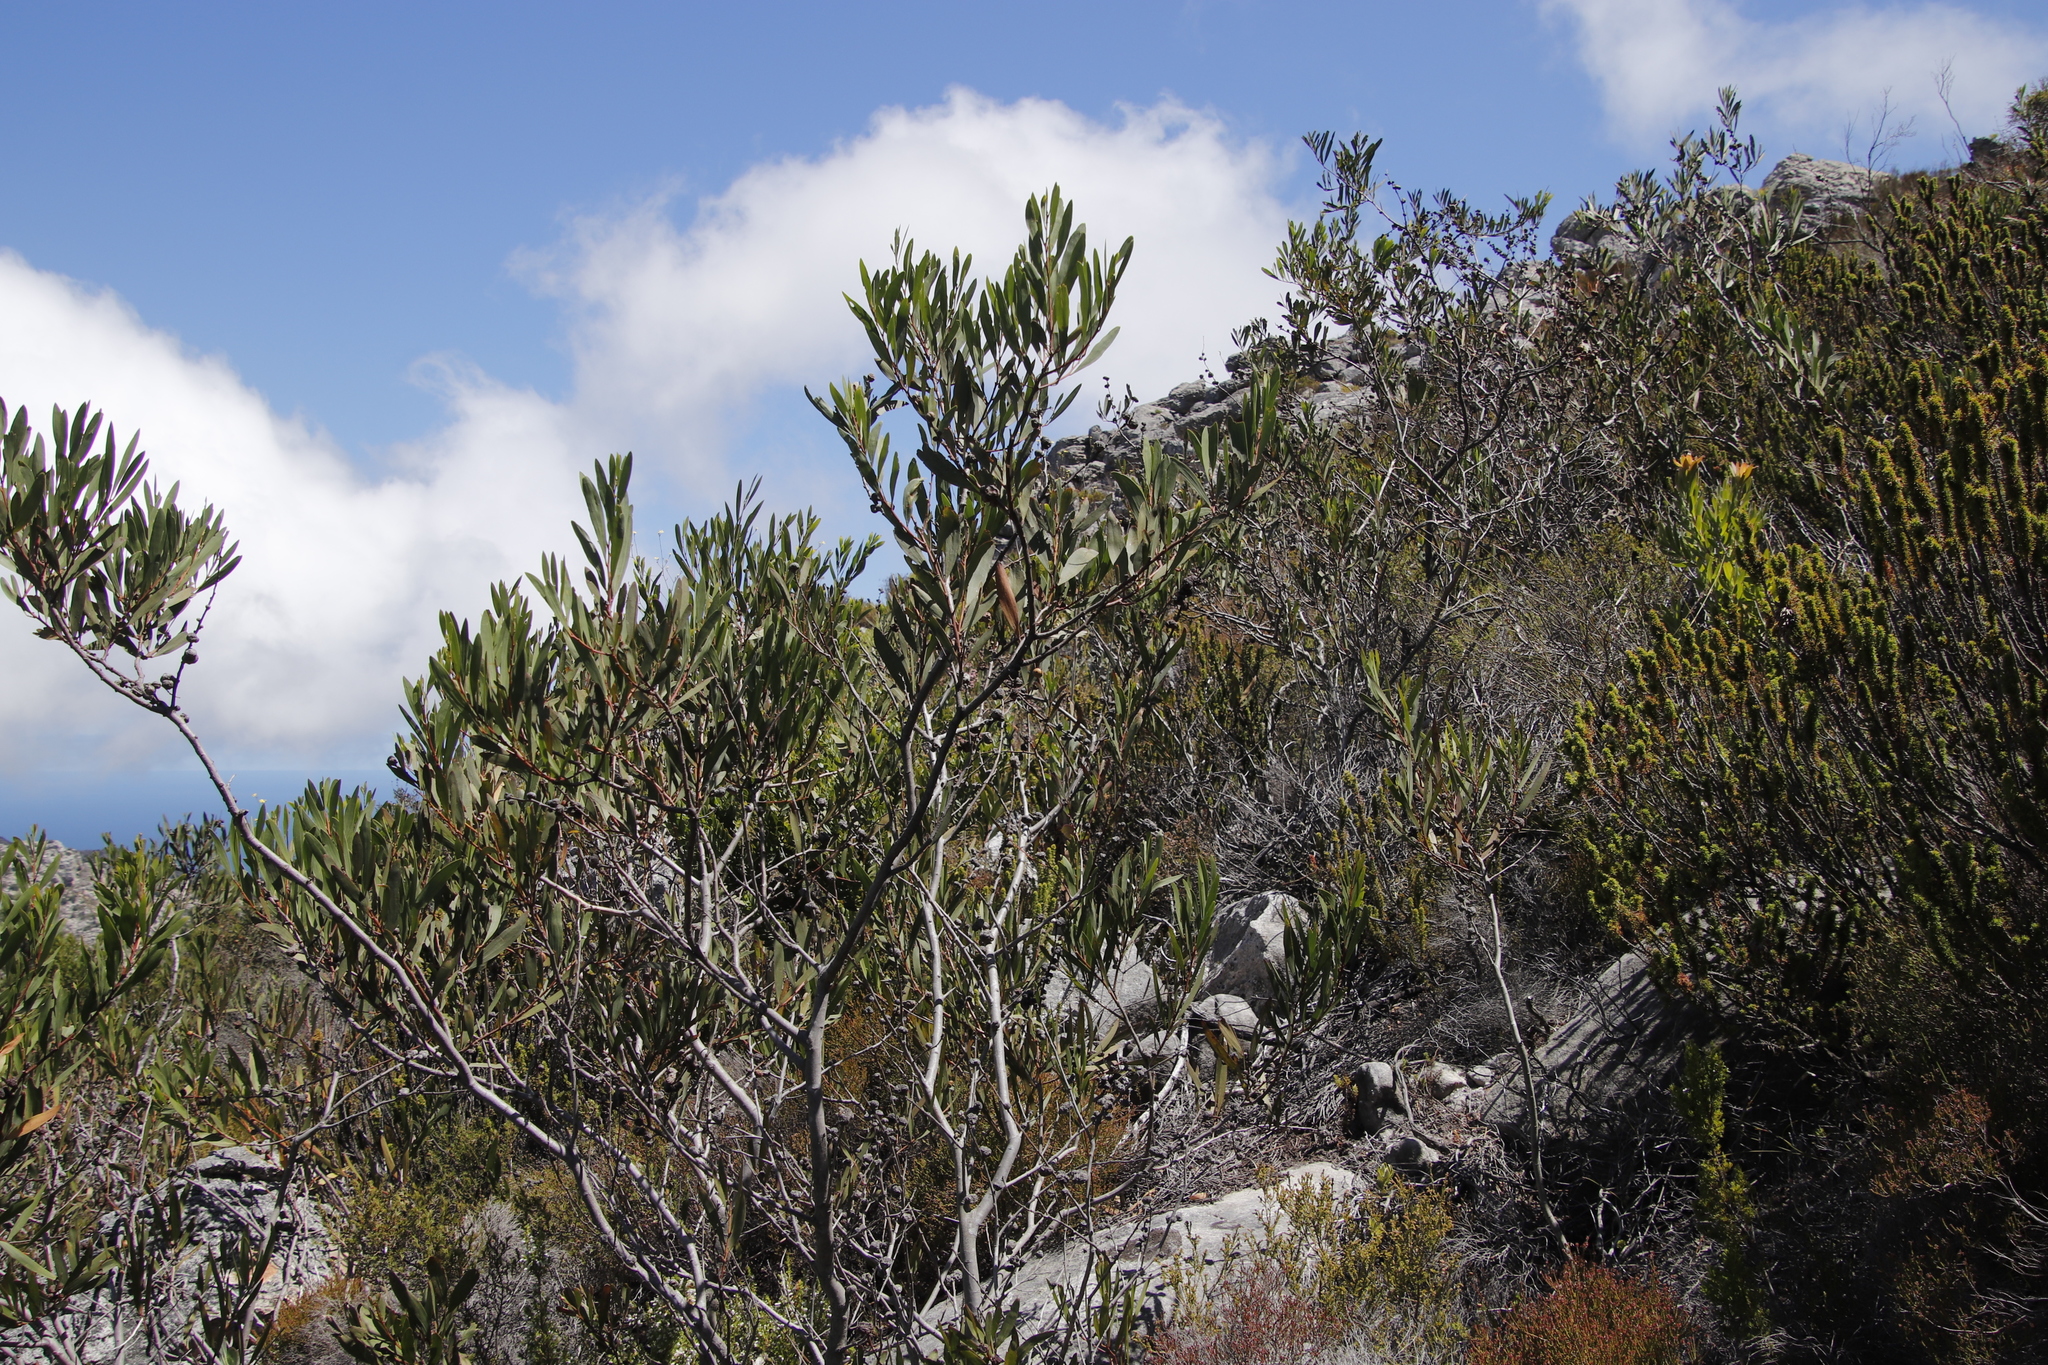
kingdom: Plantae
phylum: Tracheophyta
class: Magnoliopsida
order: Fabales
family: Fabaceae
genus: Acacia
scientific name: Acacia longifolia
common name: Sydney golden wattle
